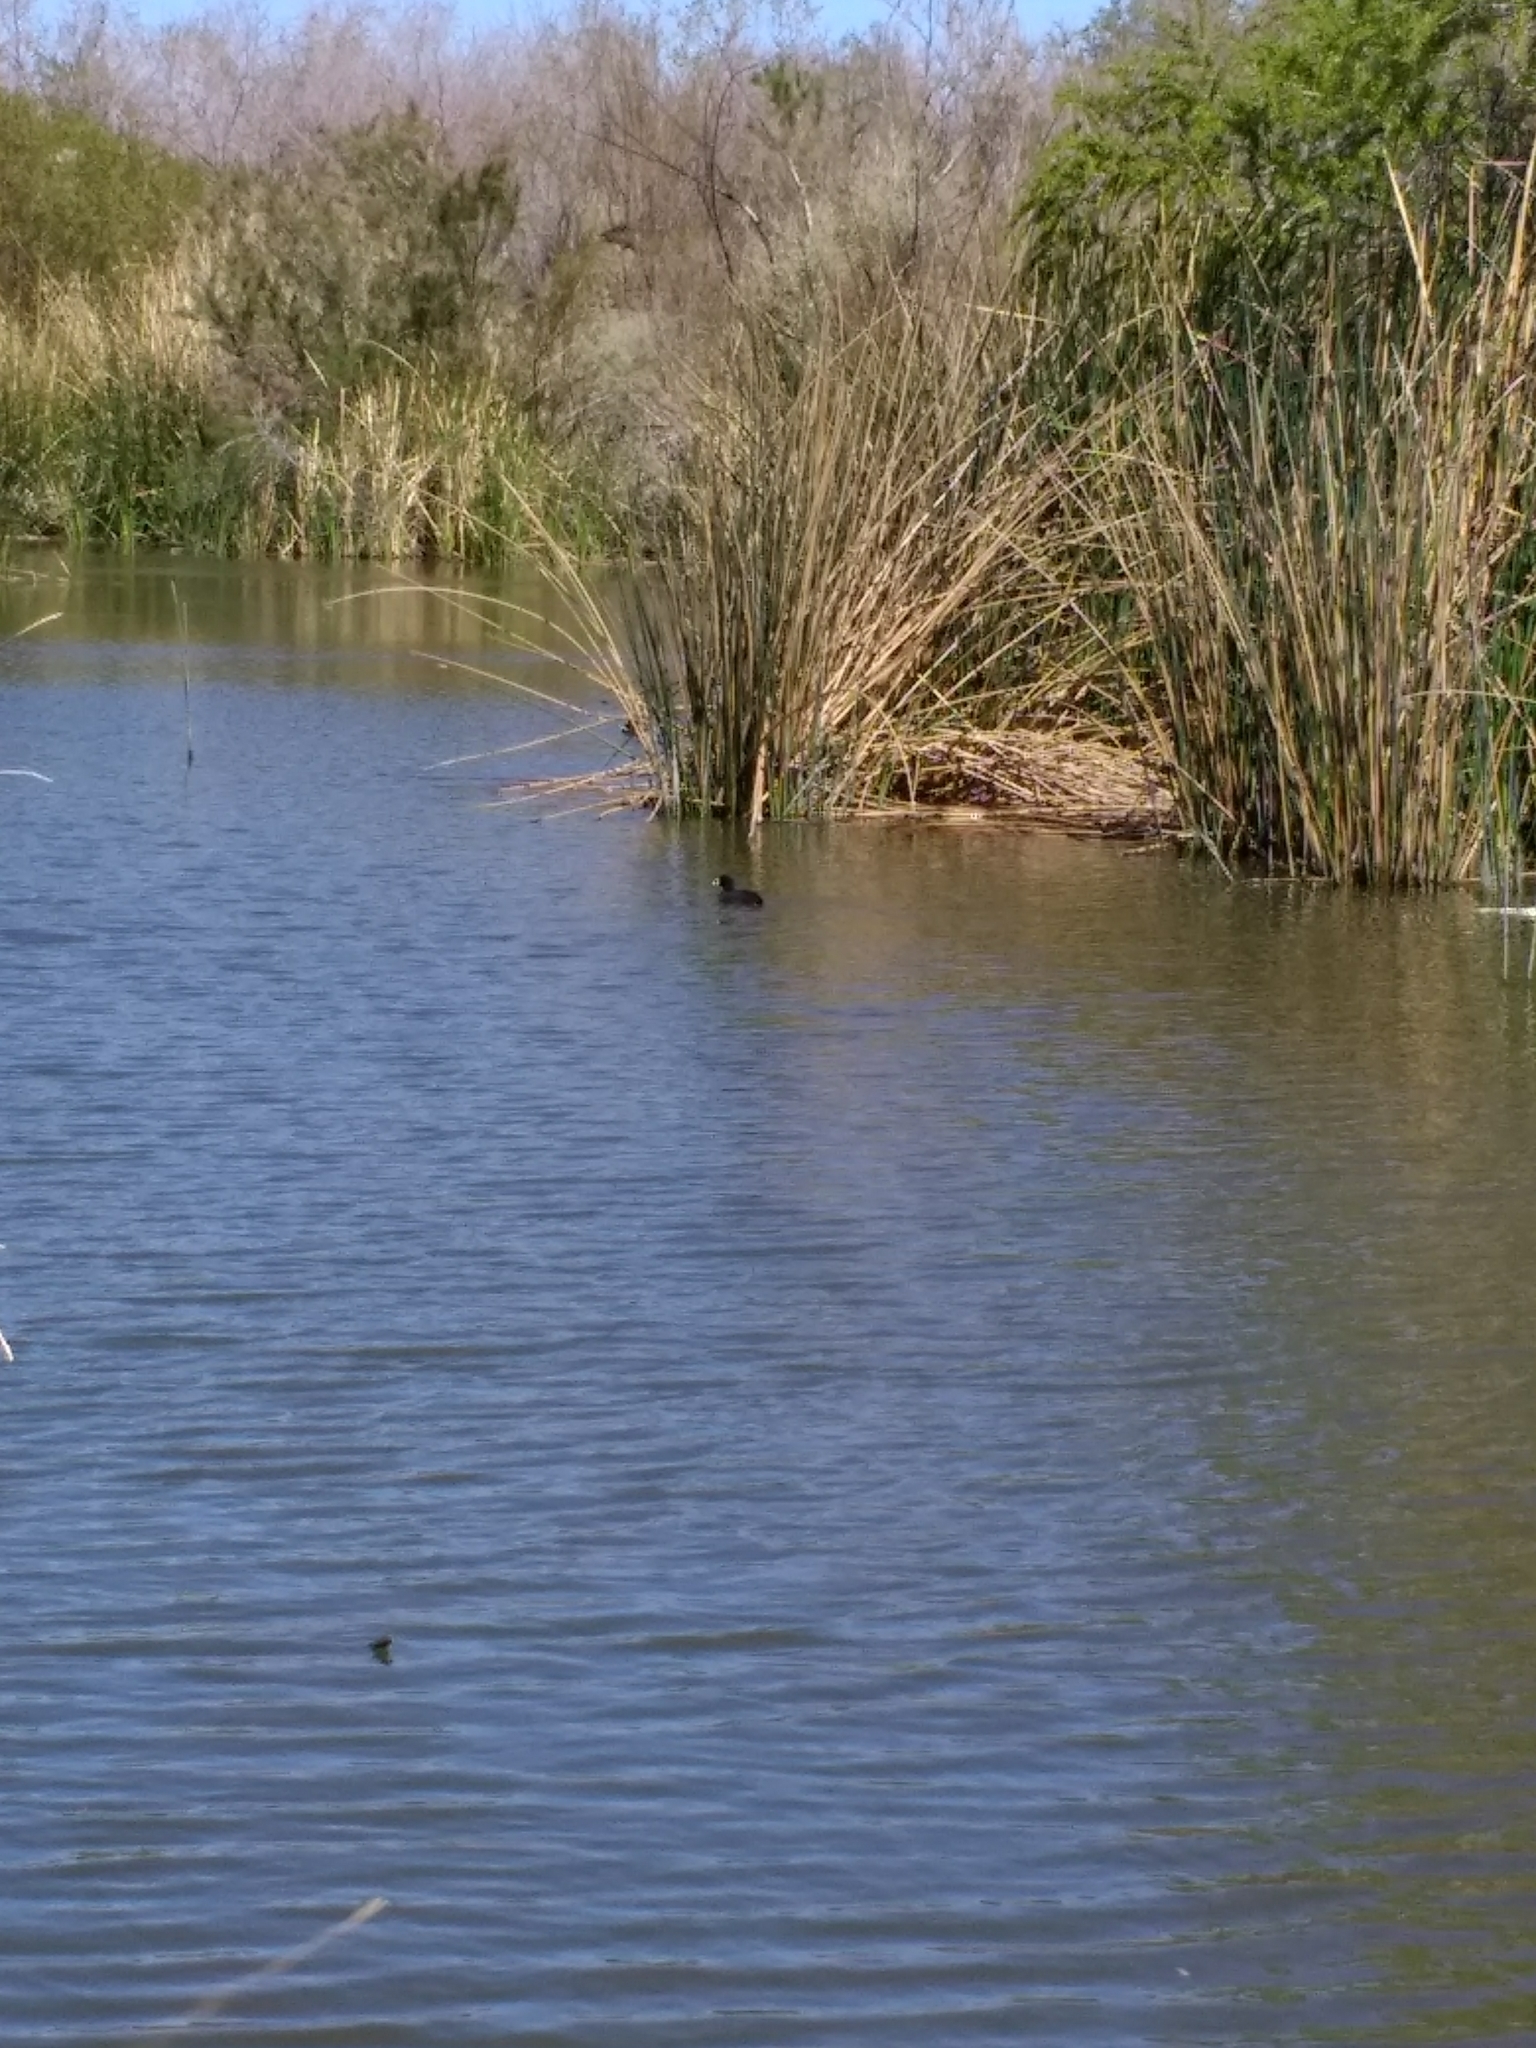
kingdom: Animalia
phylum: Chordata
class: Aves
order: Gruiformes
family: Rallidae
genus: Fulica
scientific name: Fulica americana
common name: American coot
